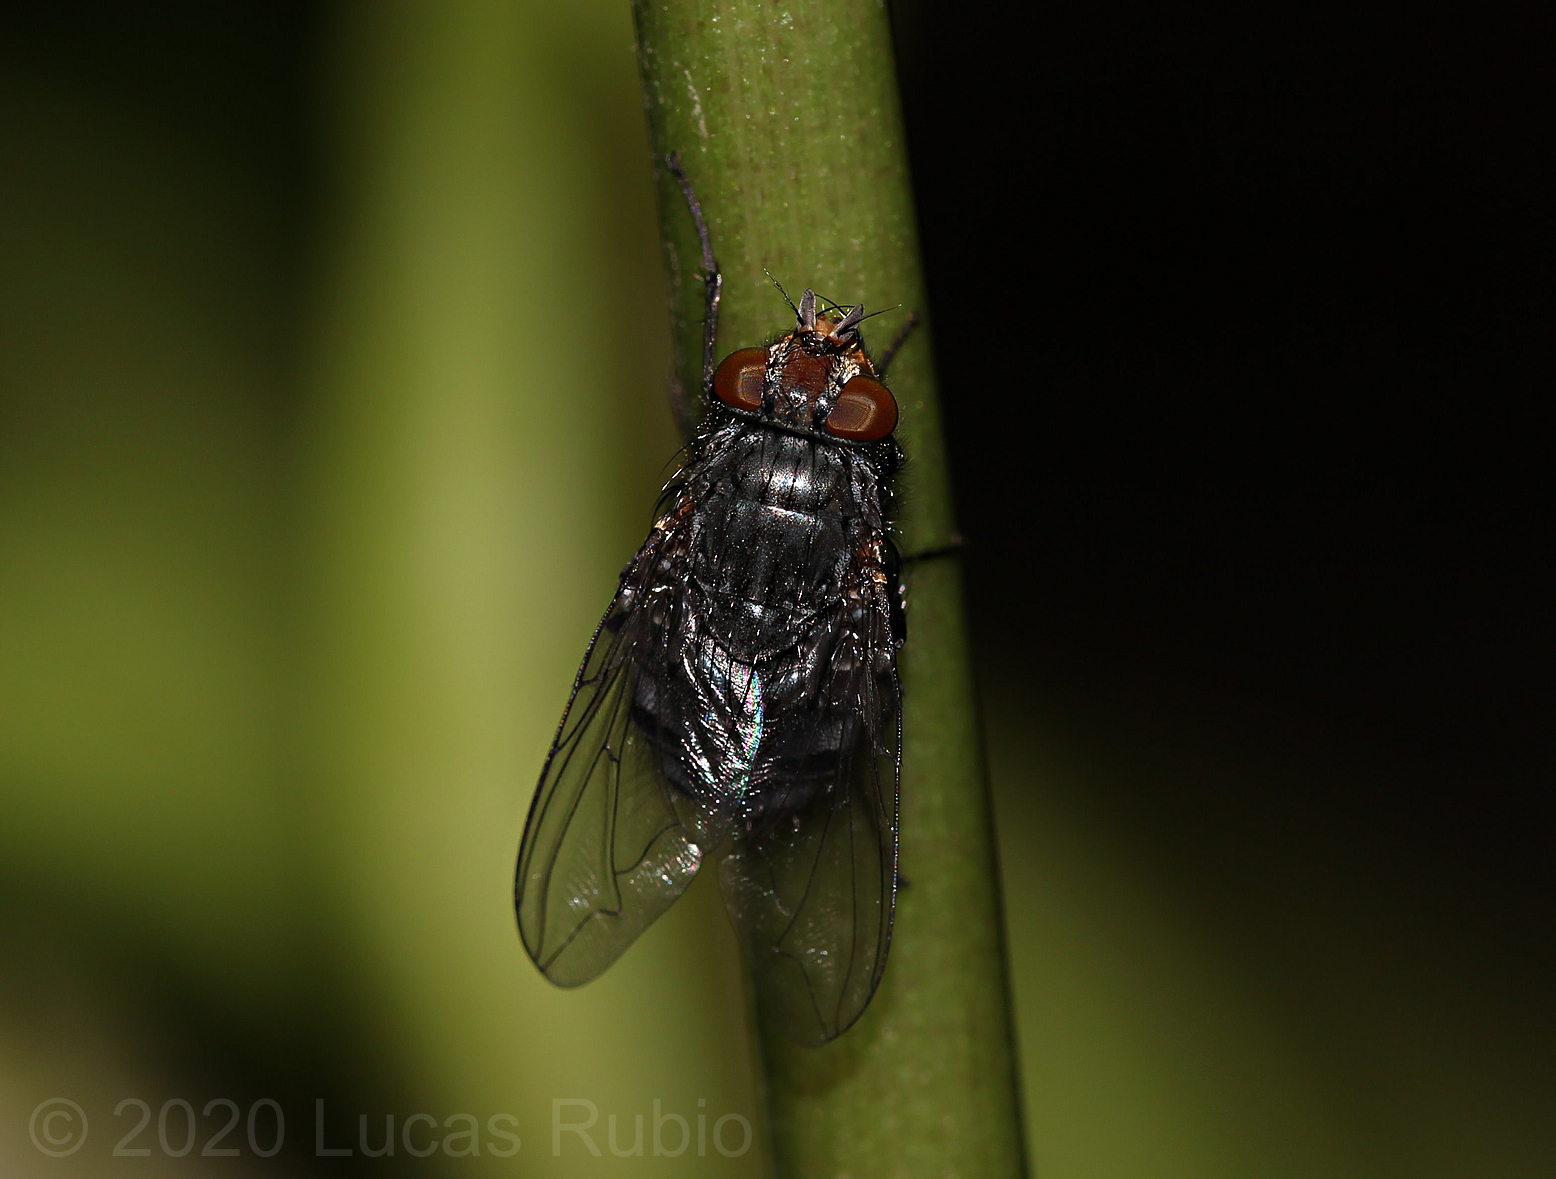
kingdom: Animalia
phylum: Arthropoda
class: Insecta
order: Diptera
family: Calliphoridae
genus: Calliphora
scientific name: Calliphora vicina
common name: Common blow flie
